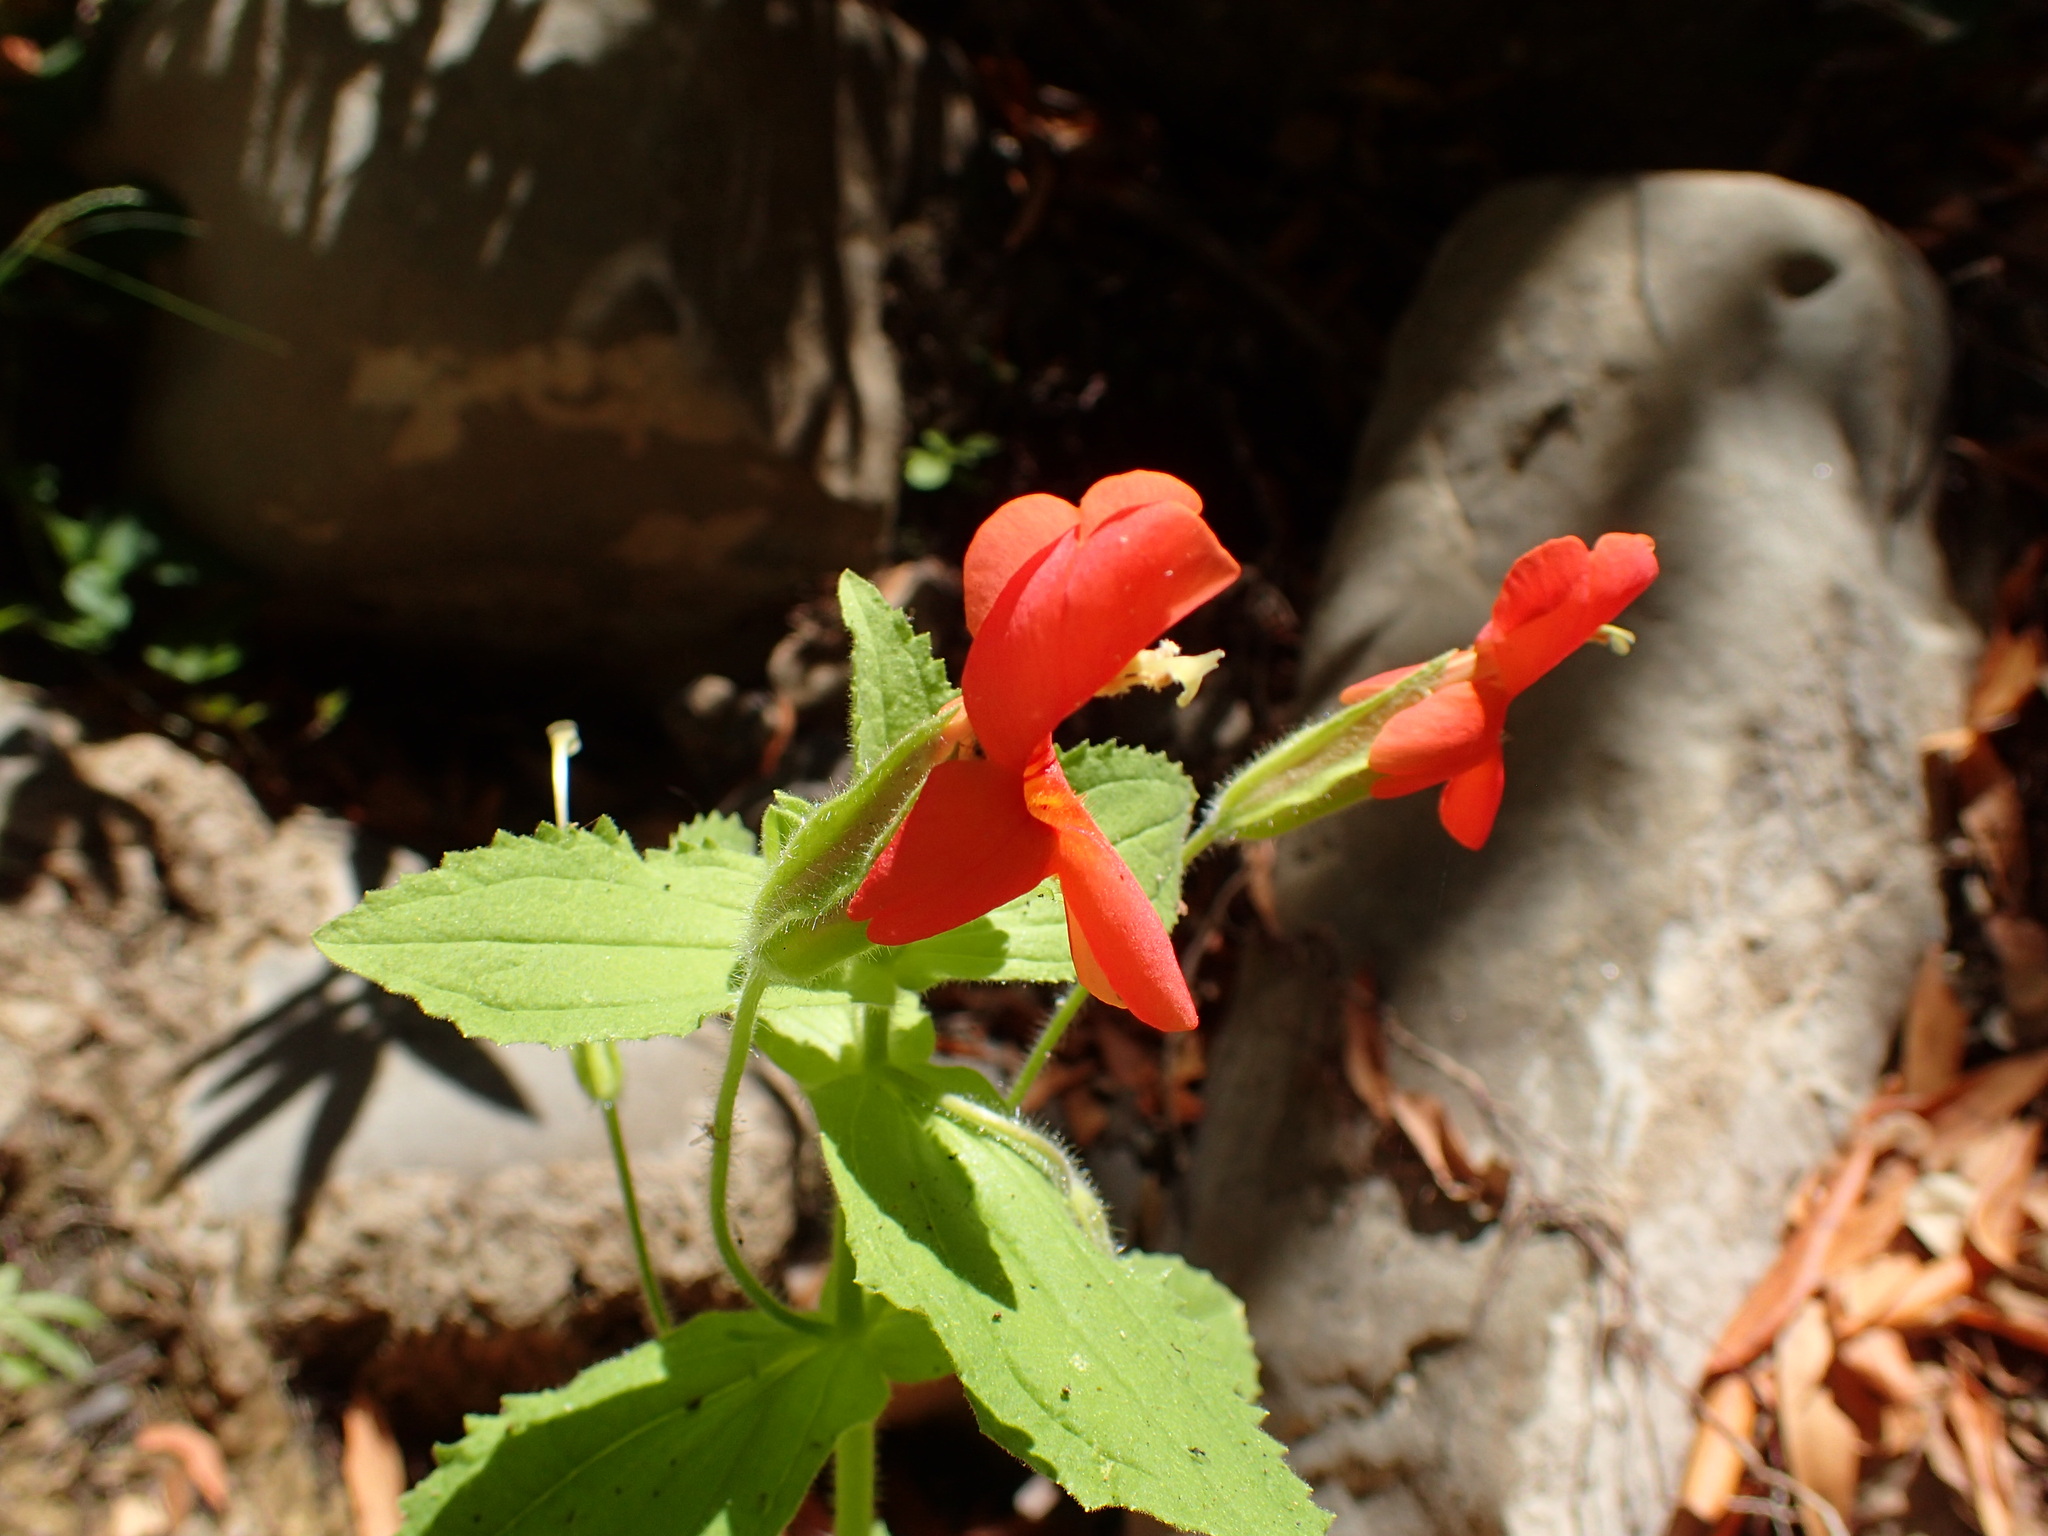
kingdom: Plantae
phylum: Tracheophyta
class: Magnoliopsida
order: Lamiales
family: Phrymaceae
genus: Erythranthe
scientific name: Erythranthe cardinalis
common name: Scarlet monkey-flower
